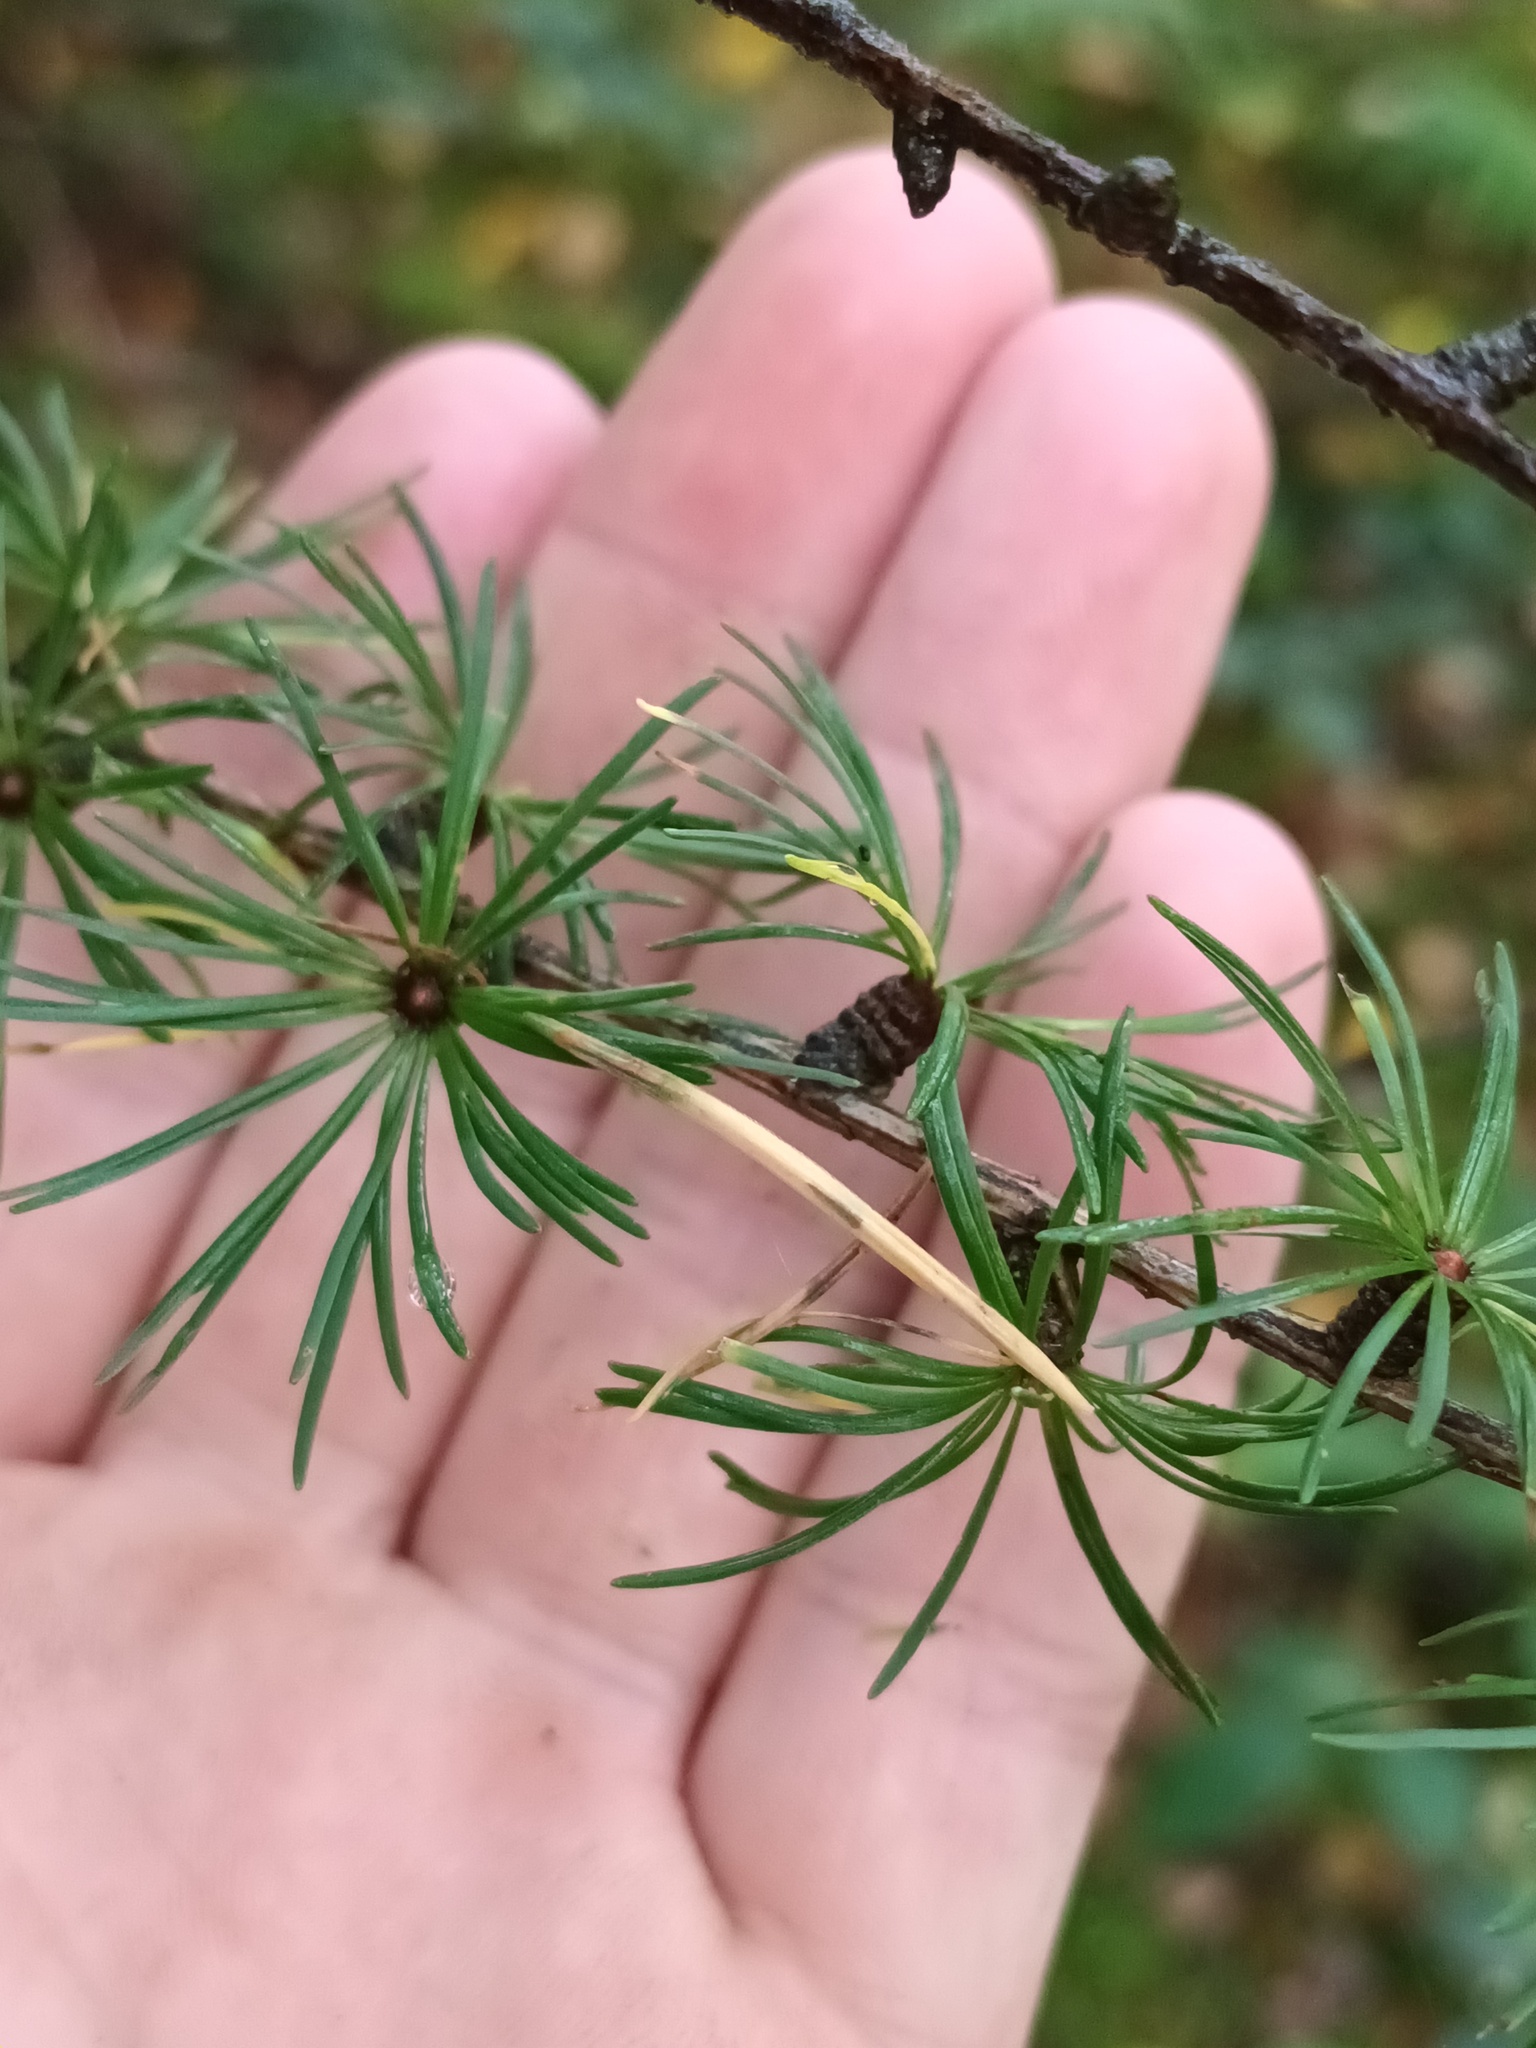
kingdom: Plantae
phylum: Tracheophyta
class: Pinopsida
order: Pinales
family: Pinaceae
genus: Larix
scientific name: Larix decidua
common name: European larch
